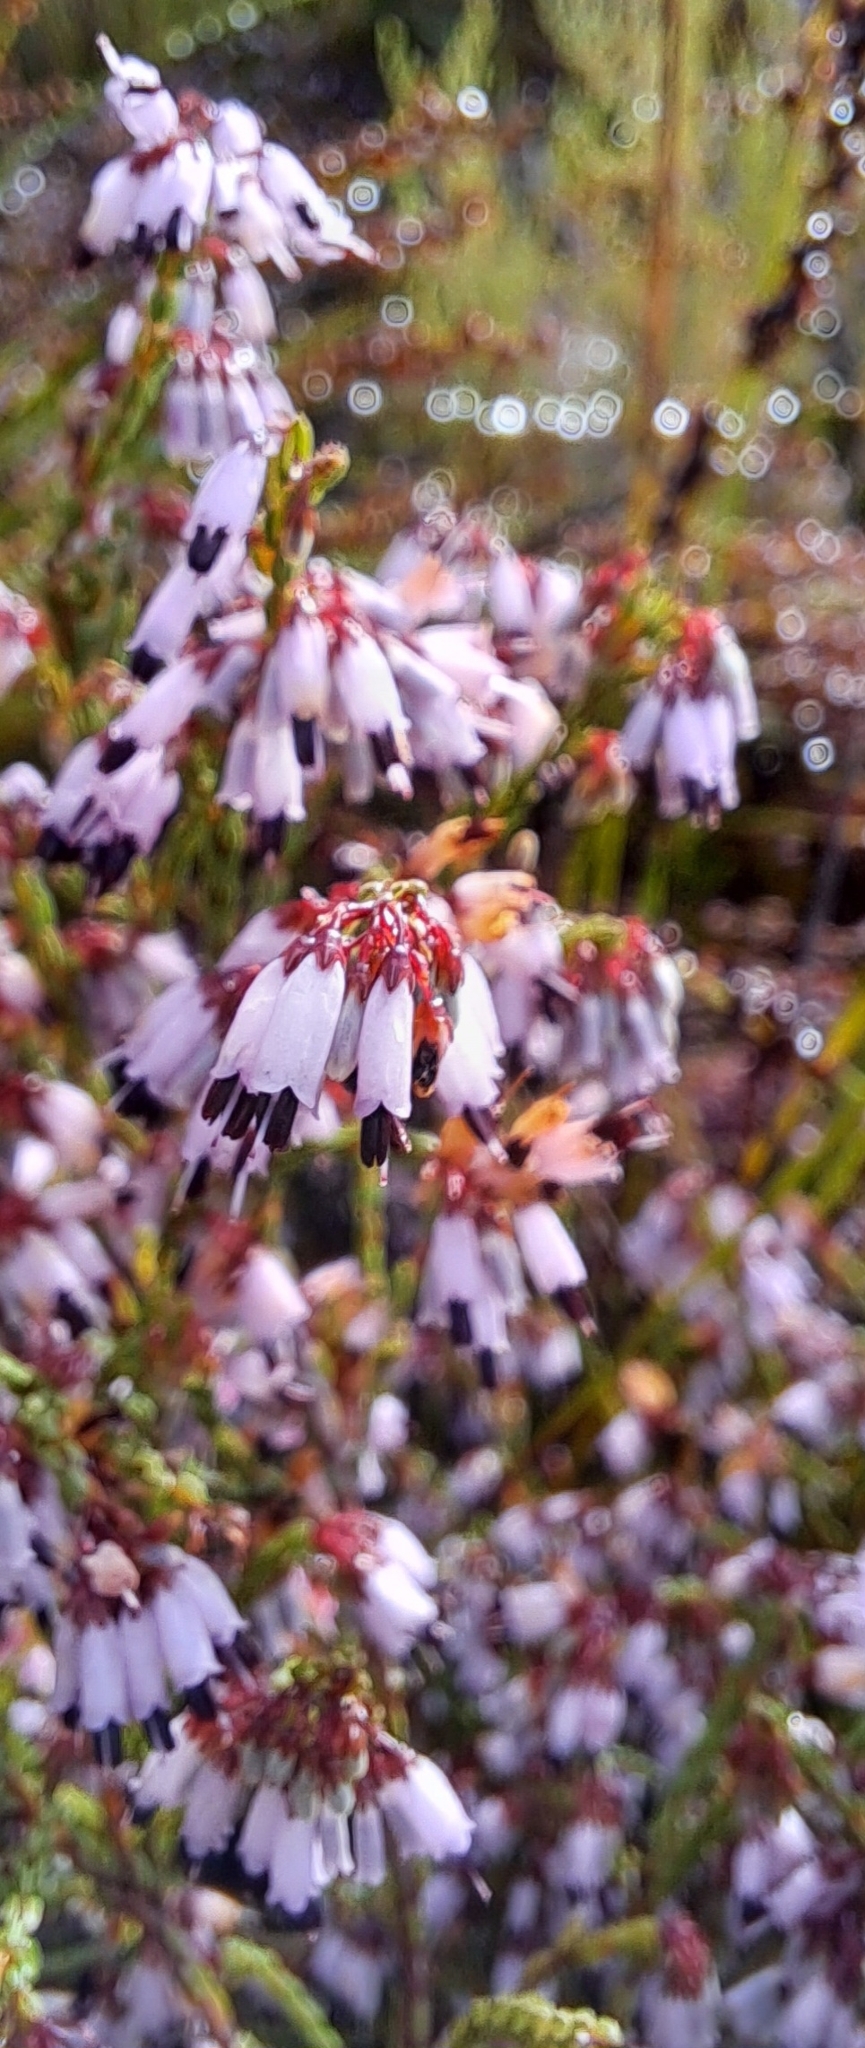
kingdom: Plantae
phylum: Tracheophyta
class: Magnoliopsida
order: Ericales
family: Ericaceae
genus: Erica
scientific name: Erica equisetifolia
